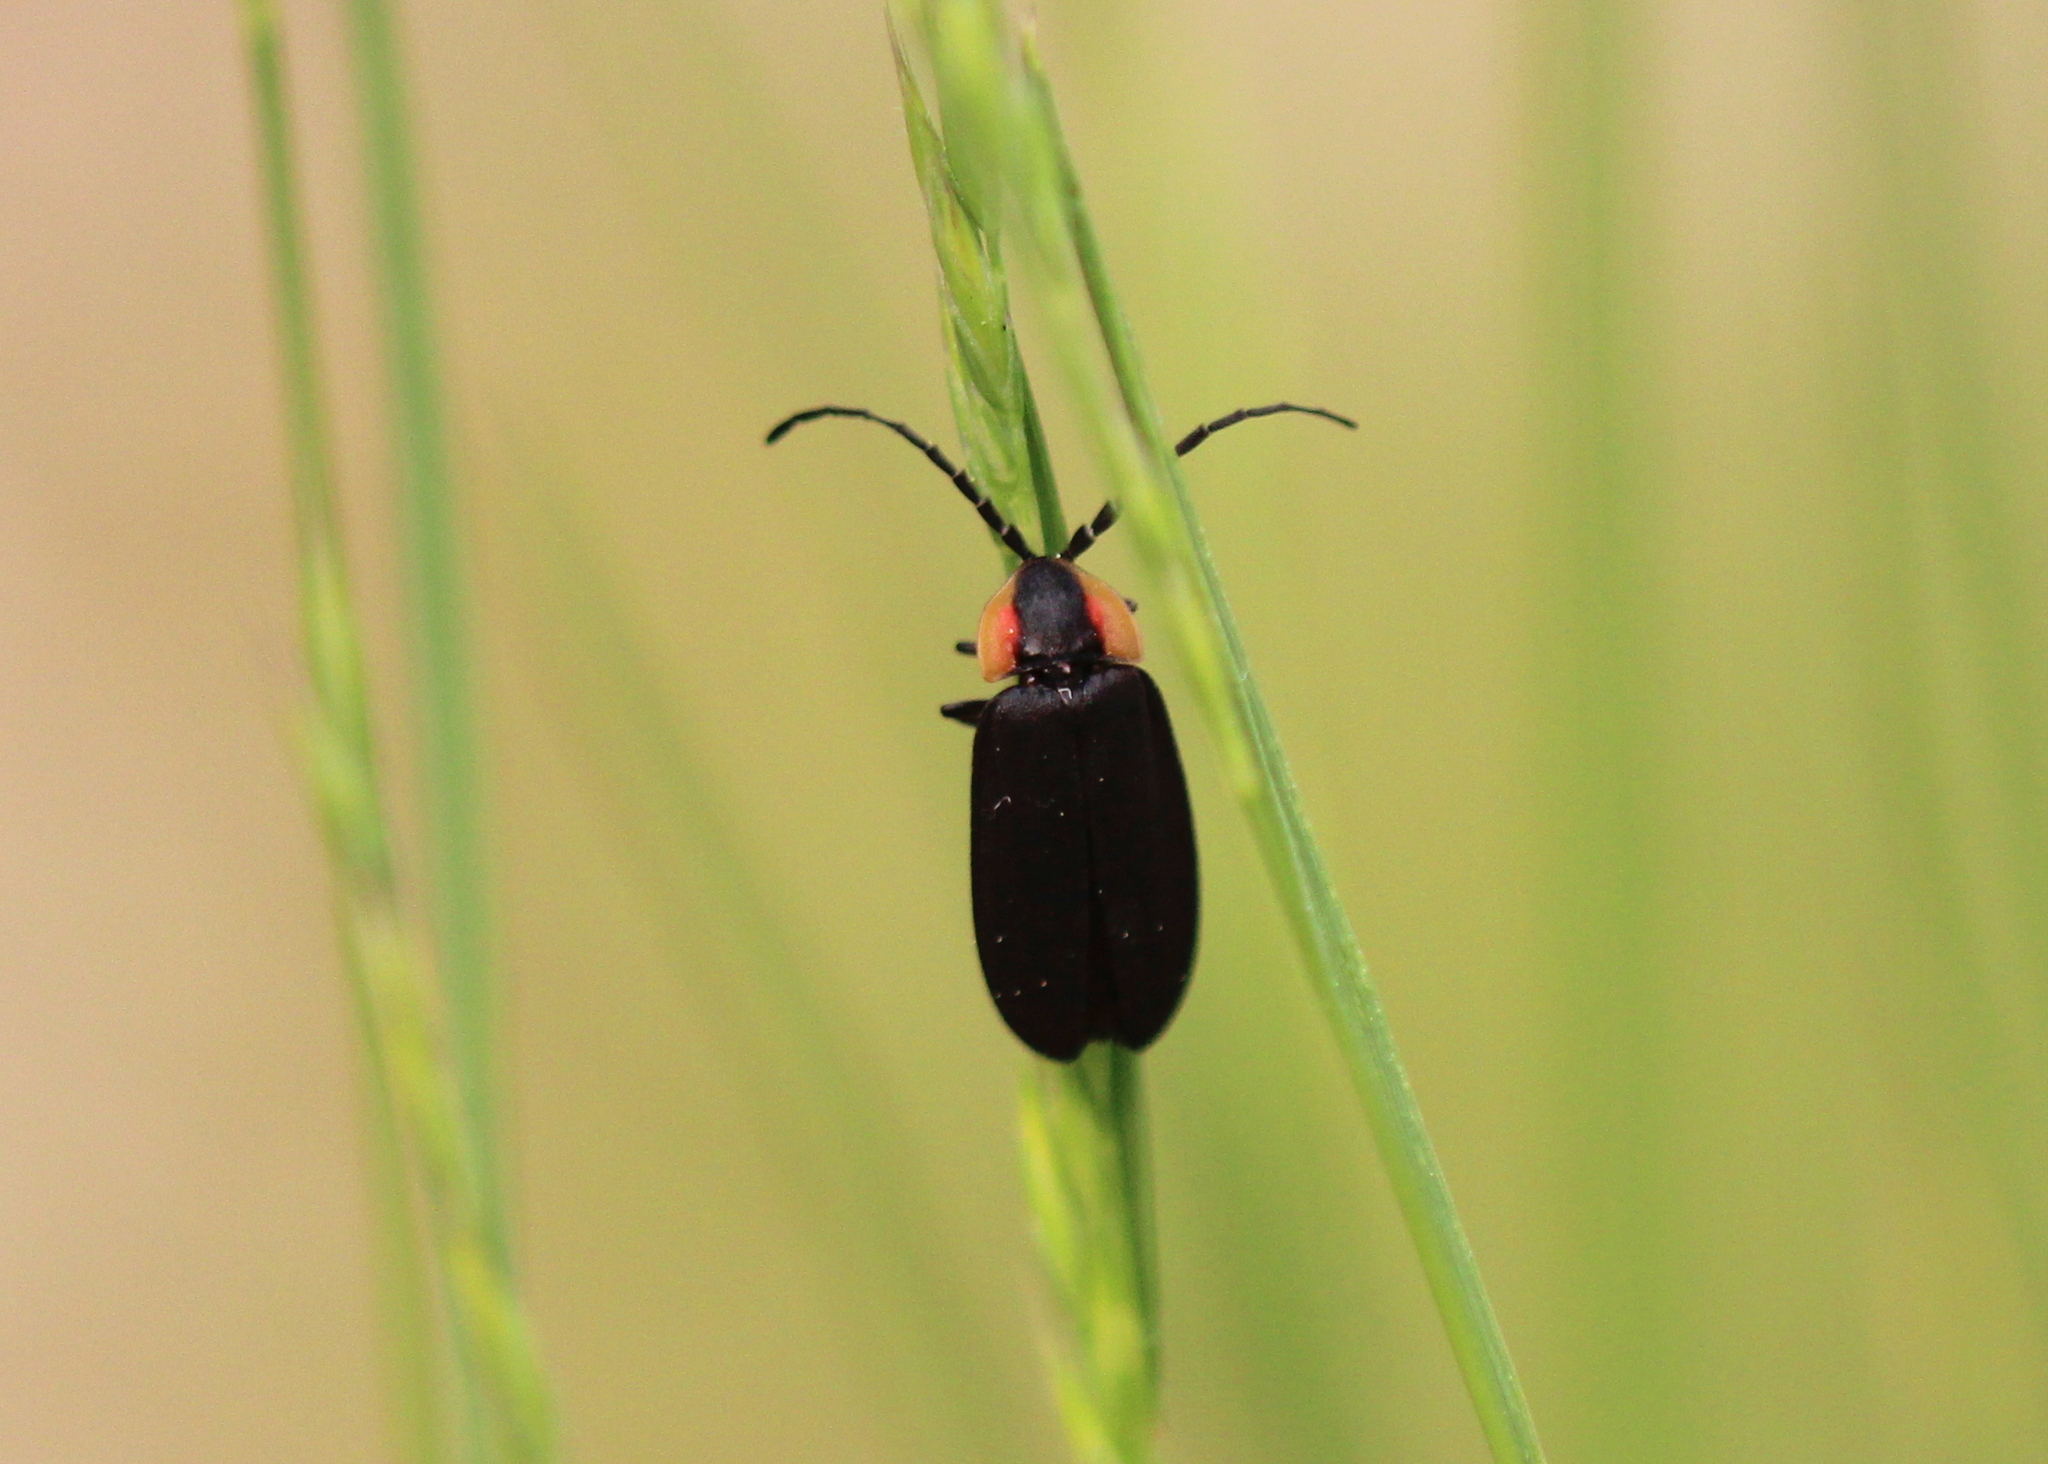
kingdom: Animalia
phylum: Arthropoda
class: Insecta
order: Coleoptera
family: Lampyridae
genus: Lucidota
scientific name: Lucidota atra
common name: Black firefly
